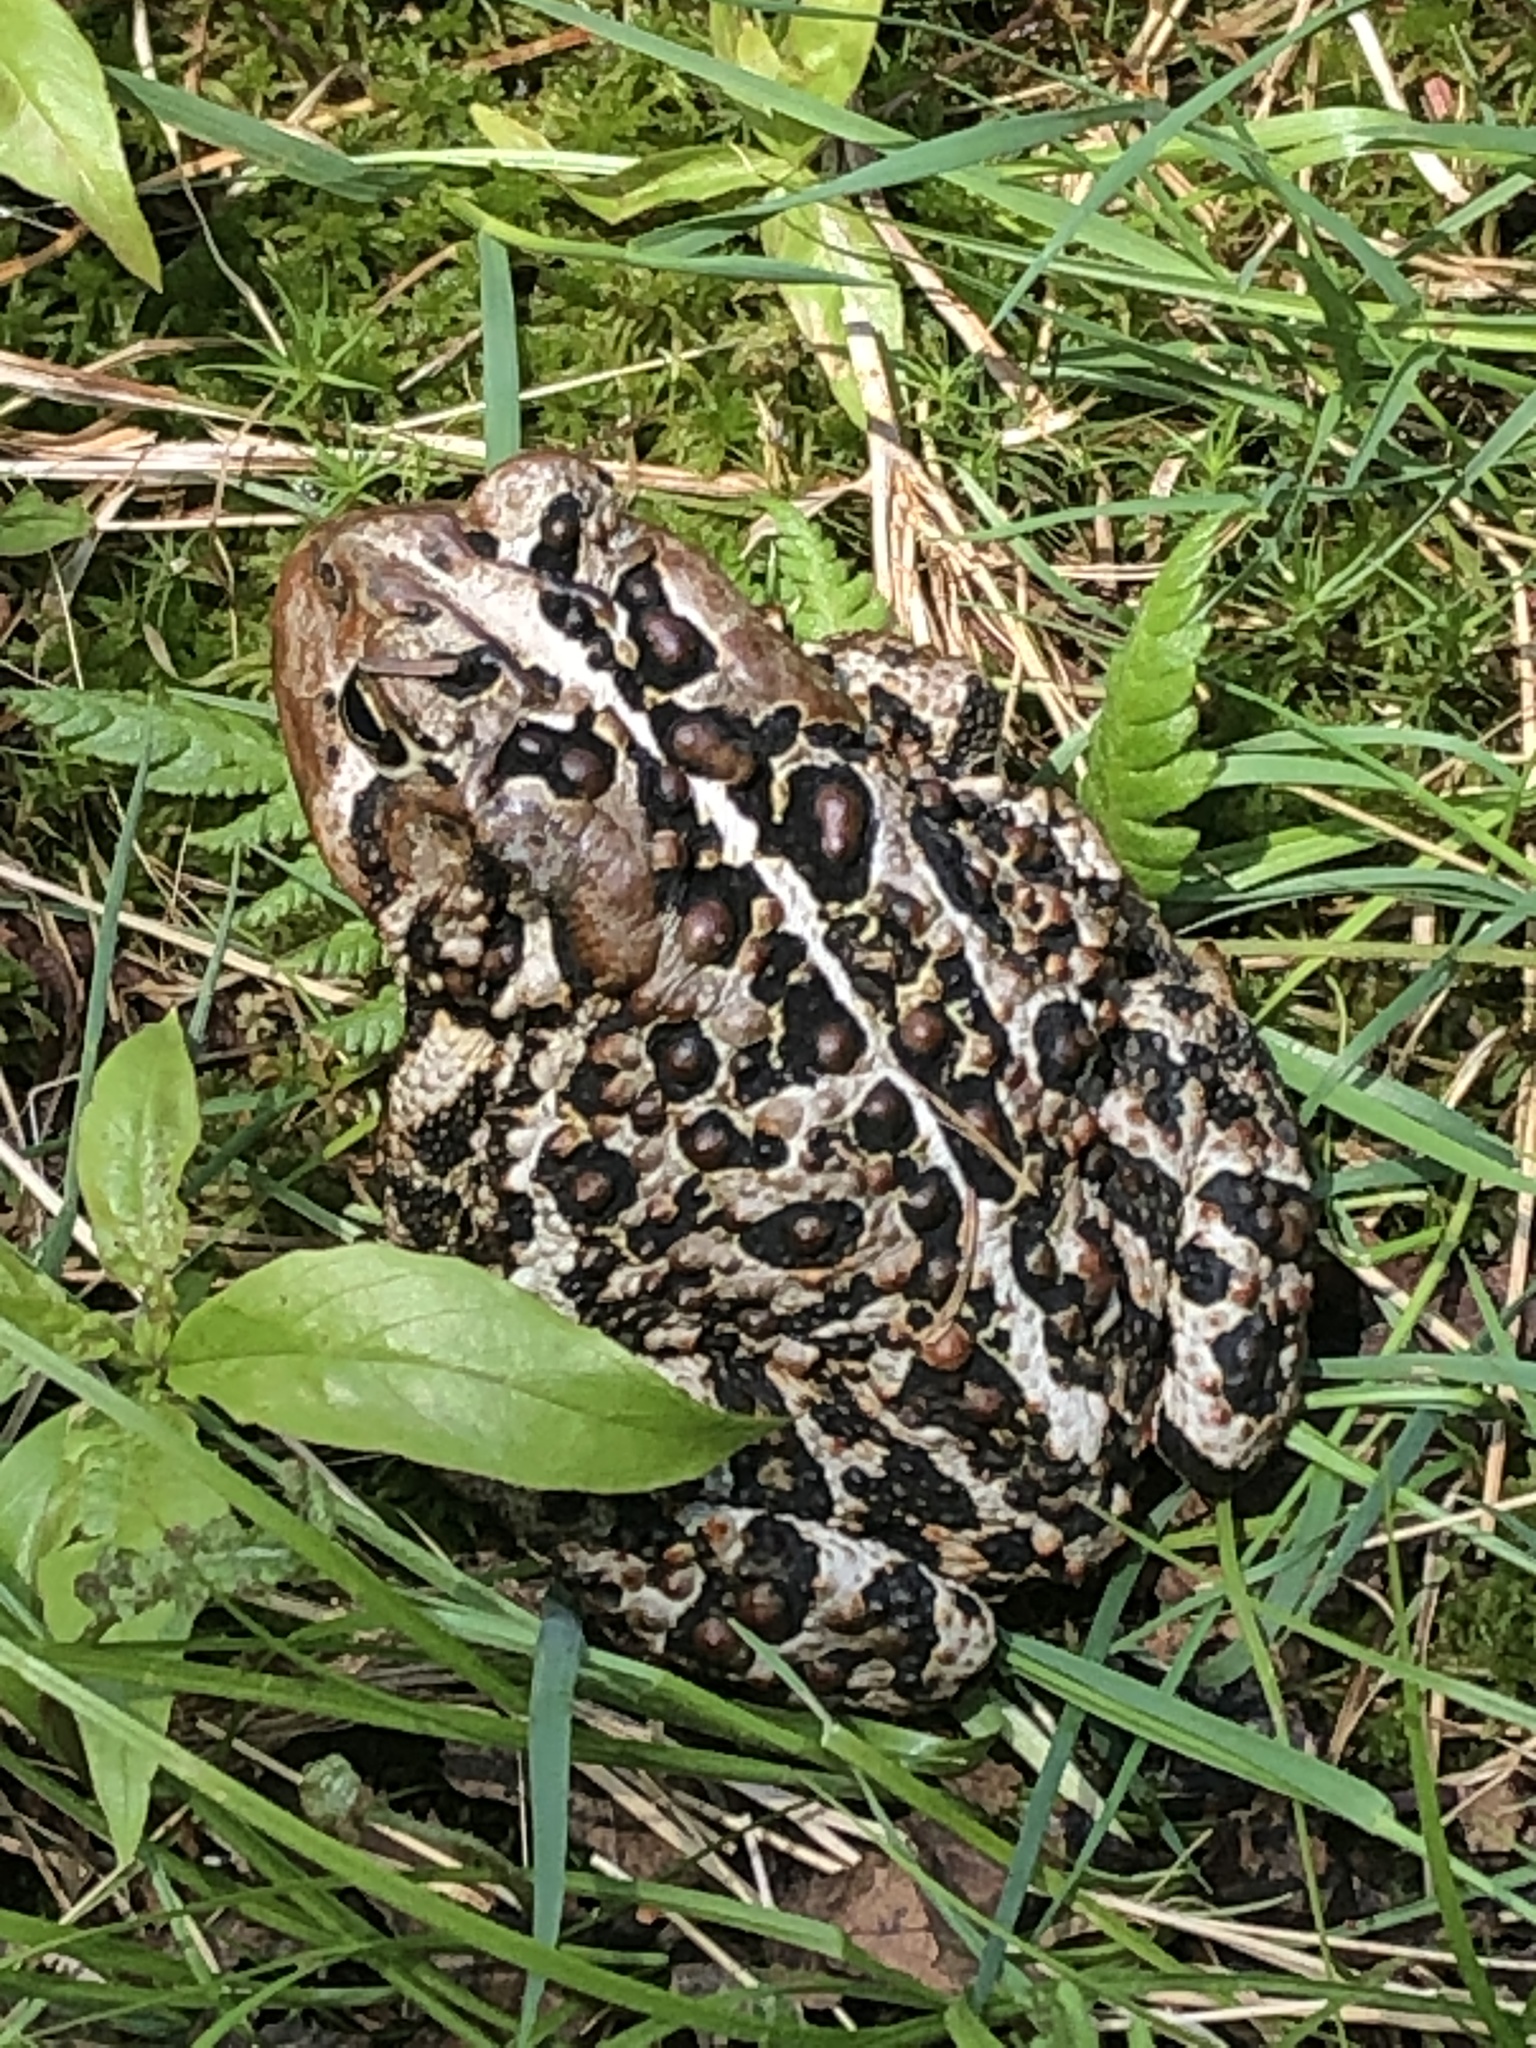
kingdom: Animalia
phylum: Chordata
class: Amphibia
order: Anura
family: Bufonidae
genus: Anaxyrus
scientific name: Anaxyrus americanus
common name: American toad
